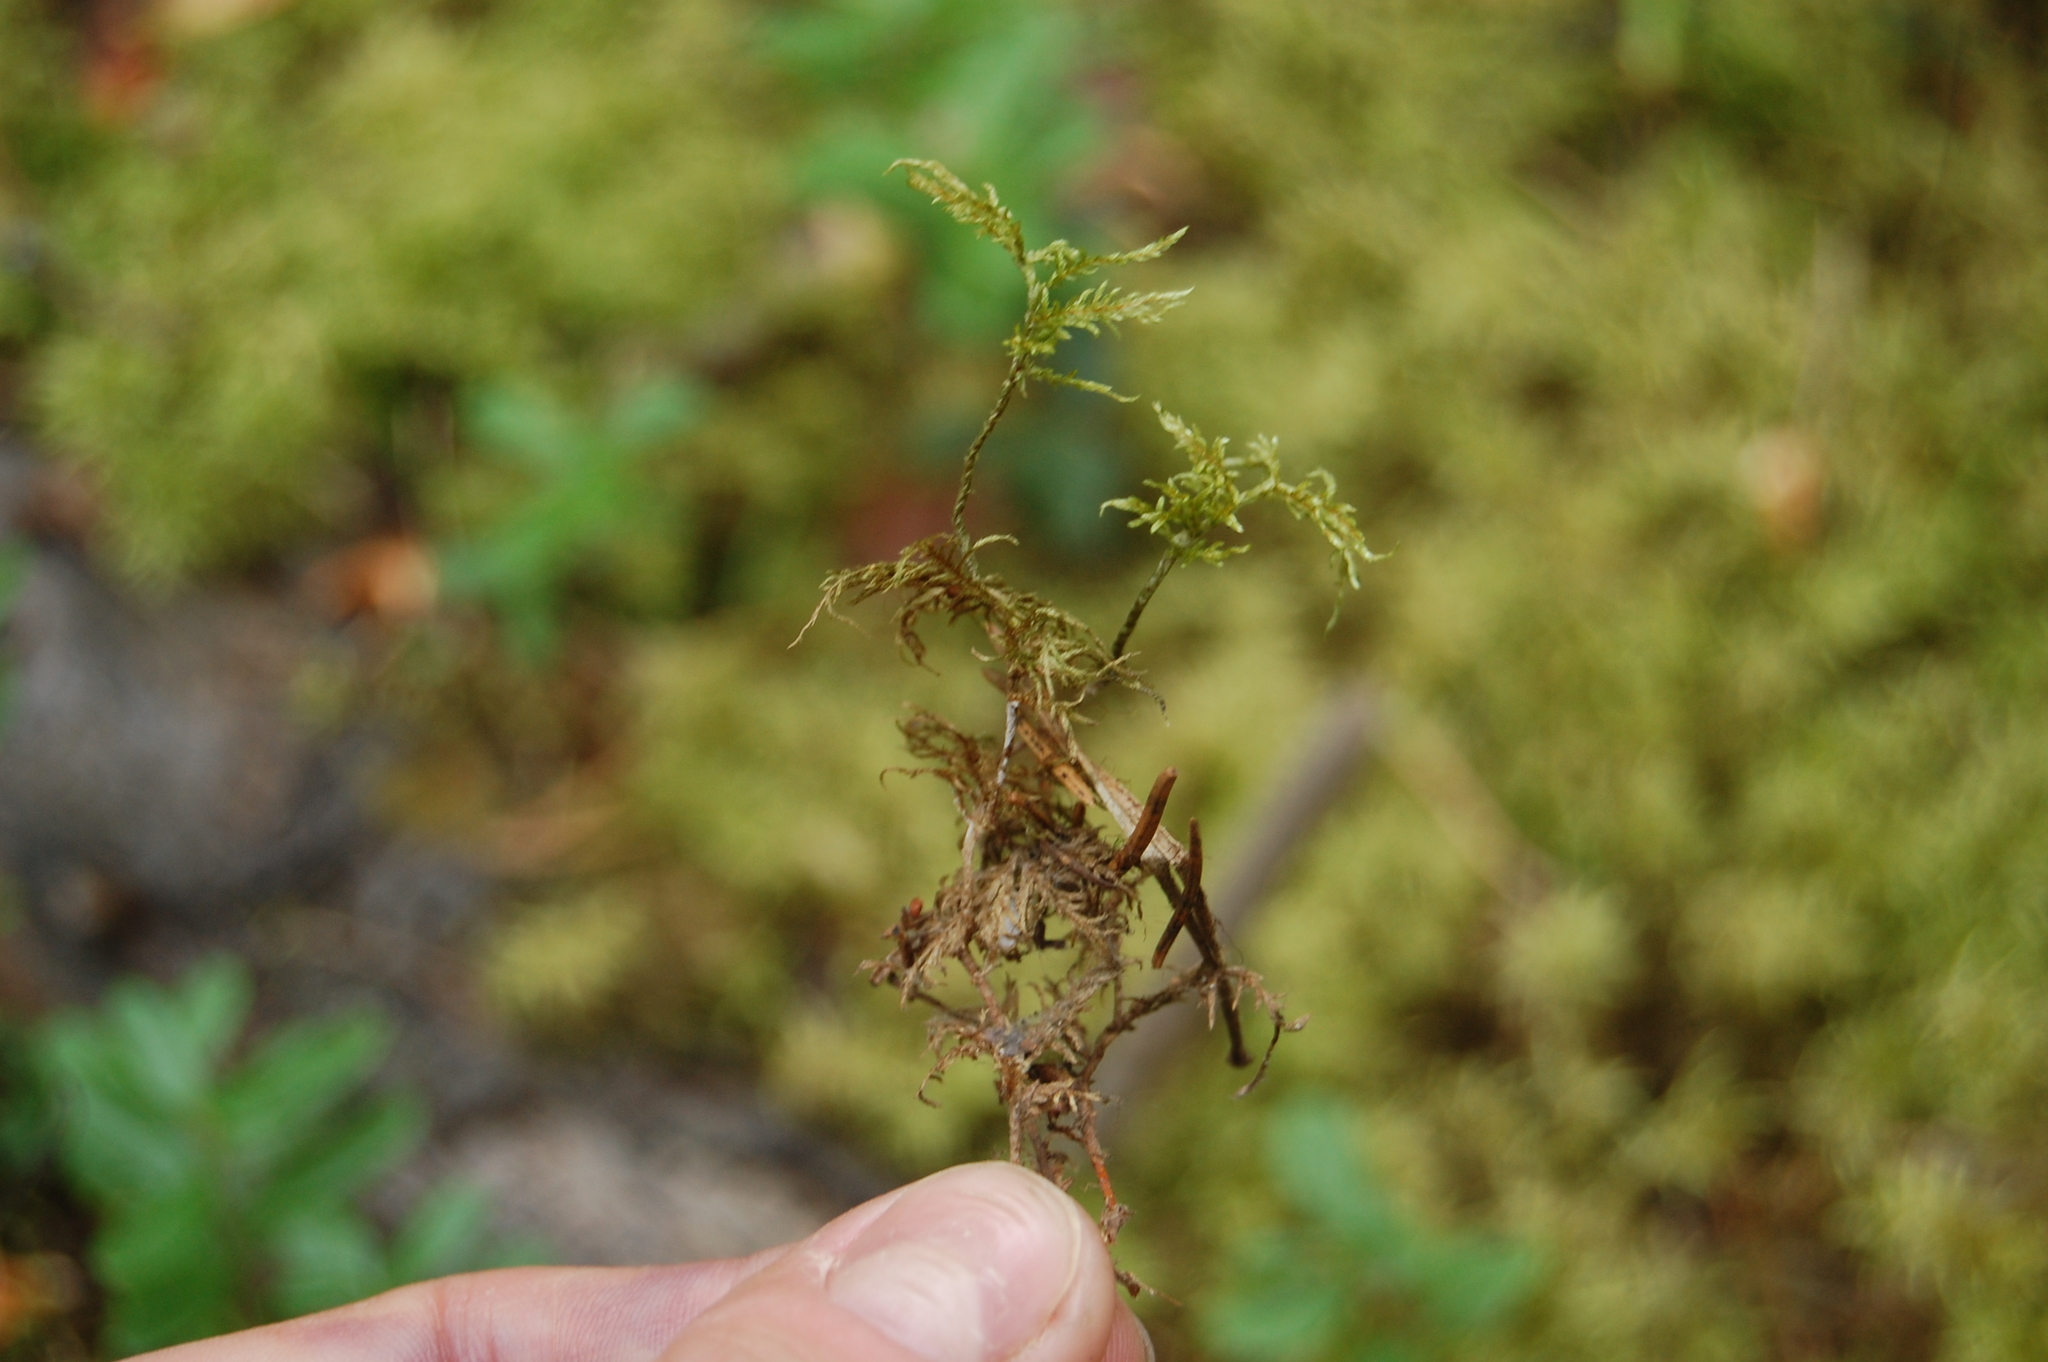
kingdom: Plantae
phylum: Bryophyta
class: Bryopsida
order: Hypnales
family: Hylocomiaceae
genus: Hylocomium
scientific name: Hylocomium splendens
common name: Stairstep moss
